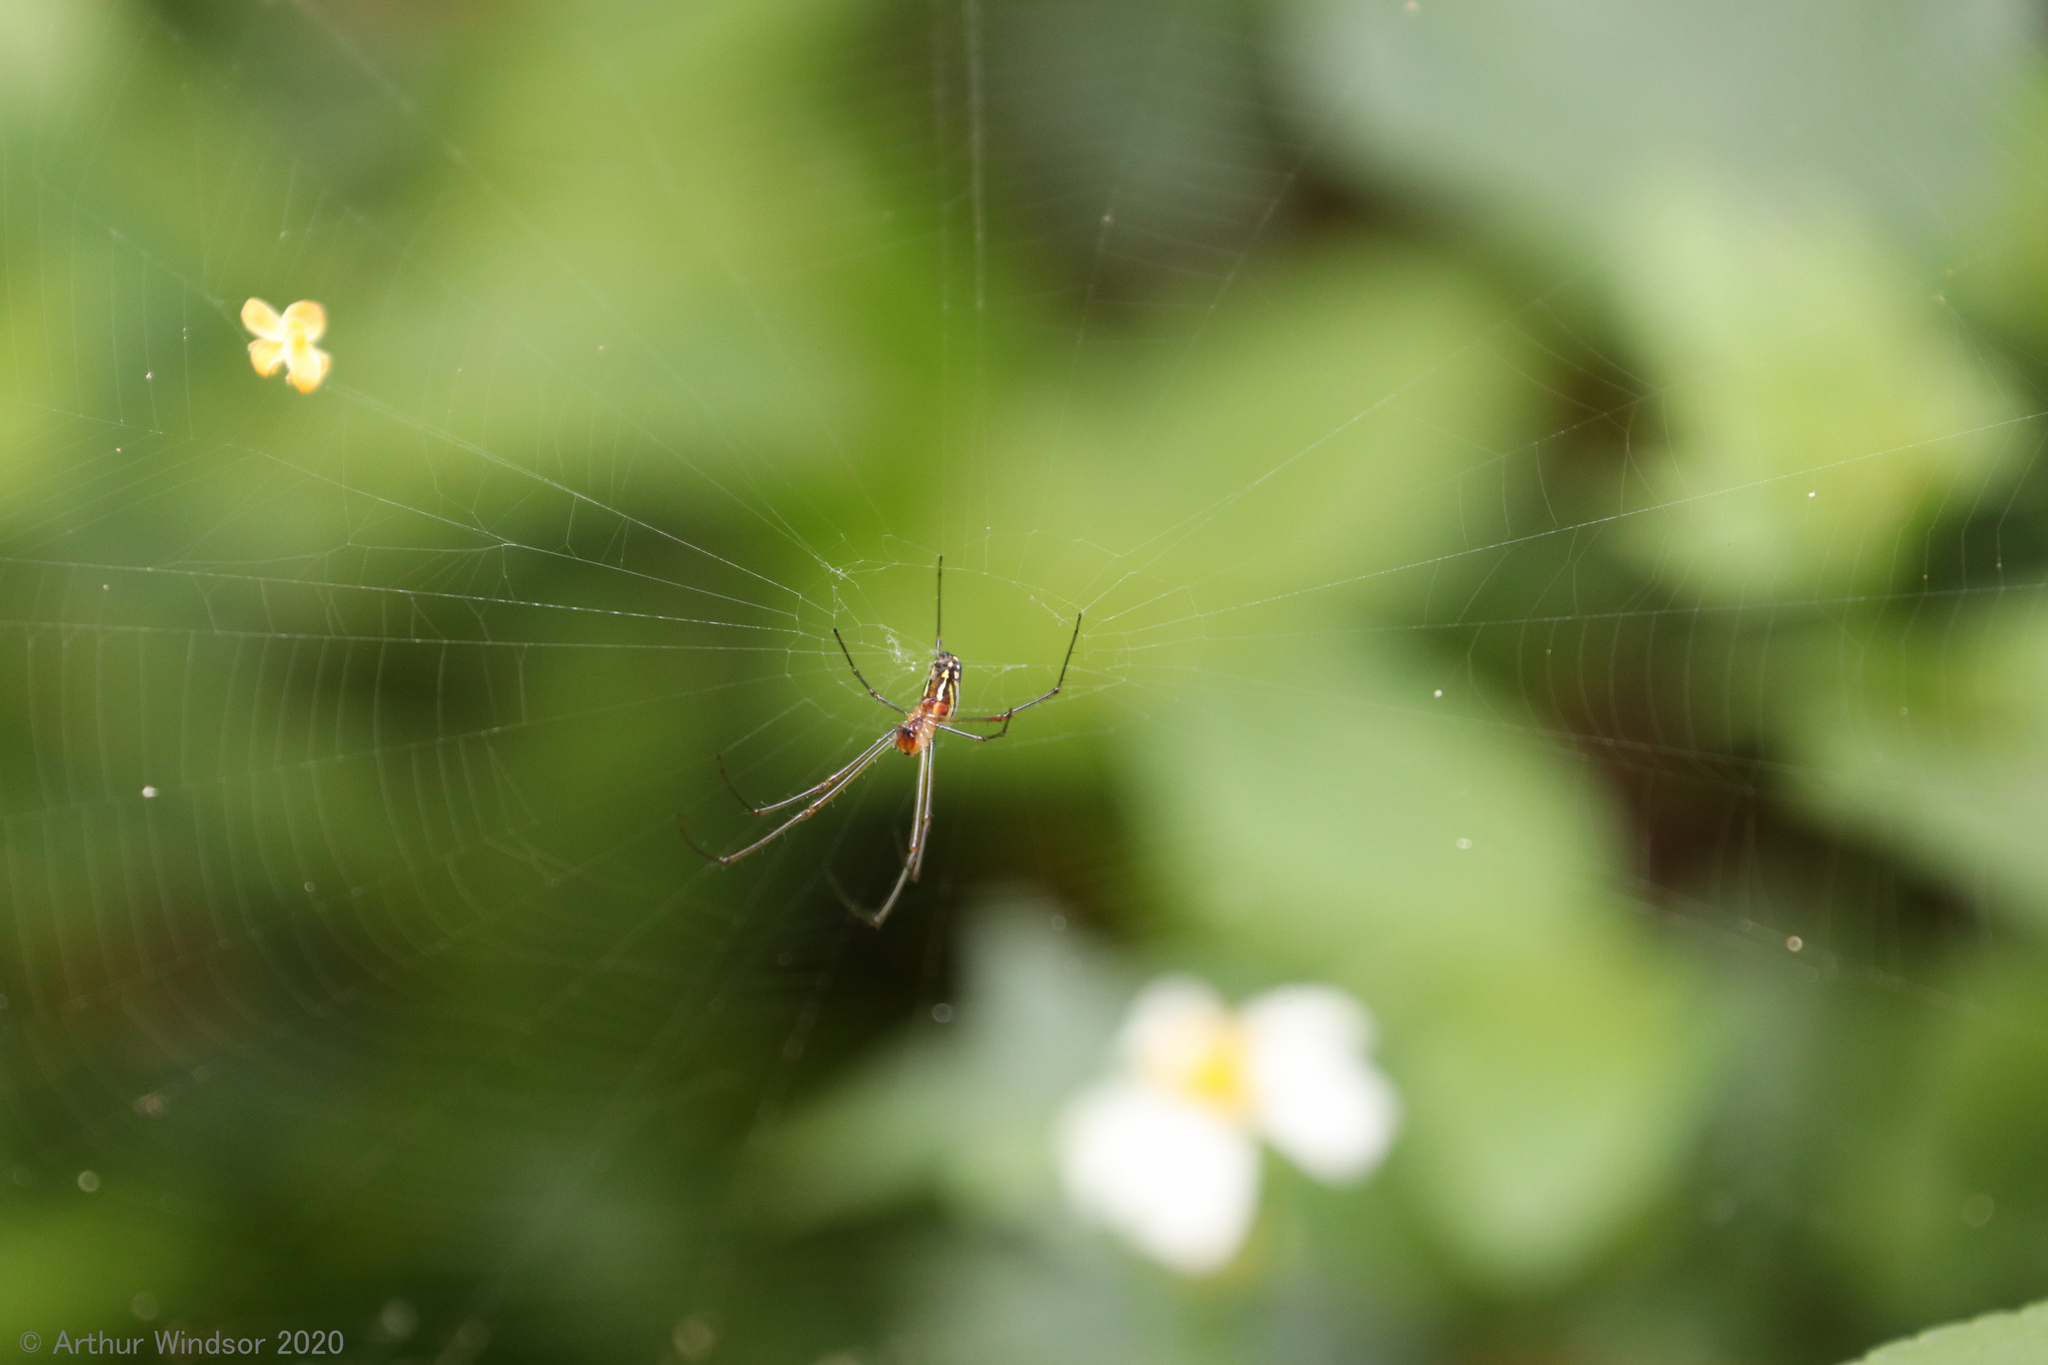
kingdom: Animalia
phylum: Arthropoda
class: Arachnida
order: Araneae
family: Tetragnathidae
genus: Leucauge
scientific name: Leucauge argyra
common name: Longjawed orb weavers
